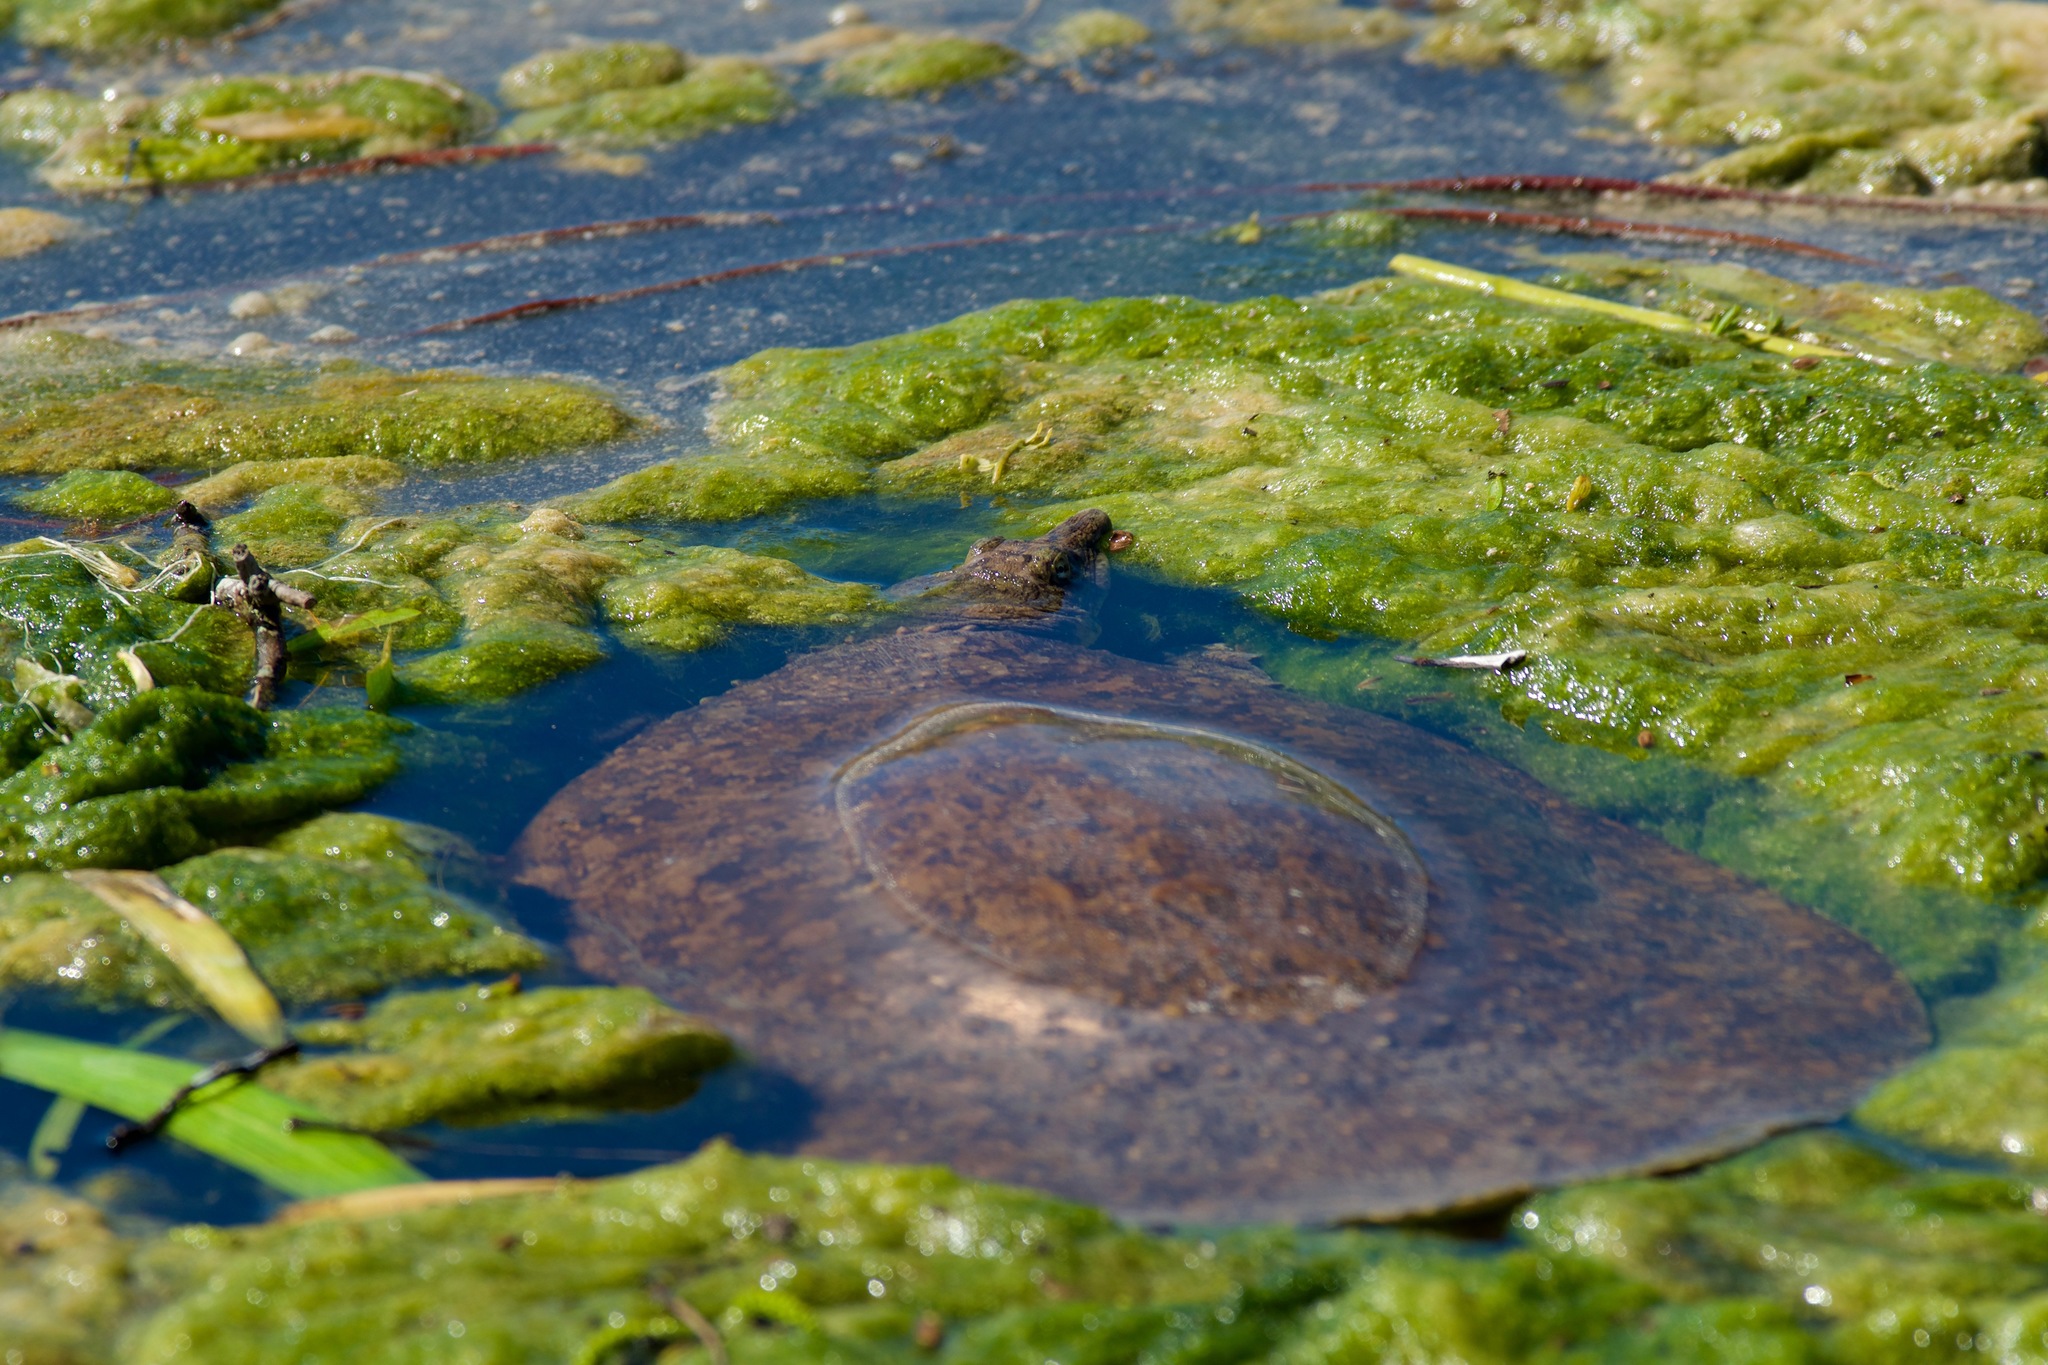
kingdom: Animalia
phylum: Chordata
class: Testudines
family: Trionychidae
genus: Apalone
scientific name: Apalone spinifera
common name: Spiny softshell turtle
